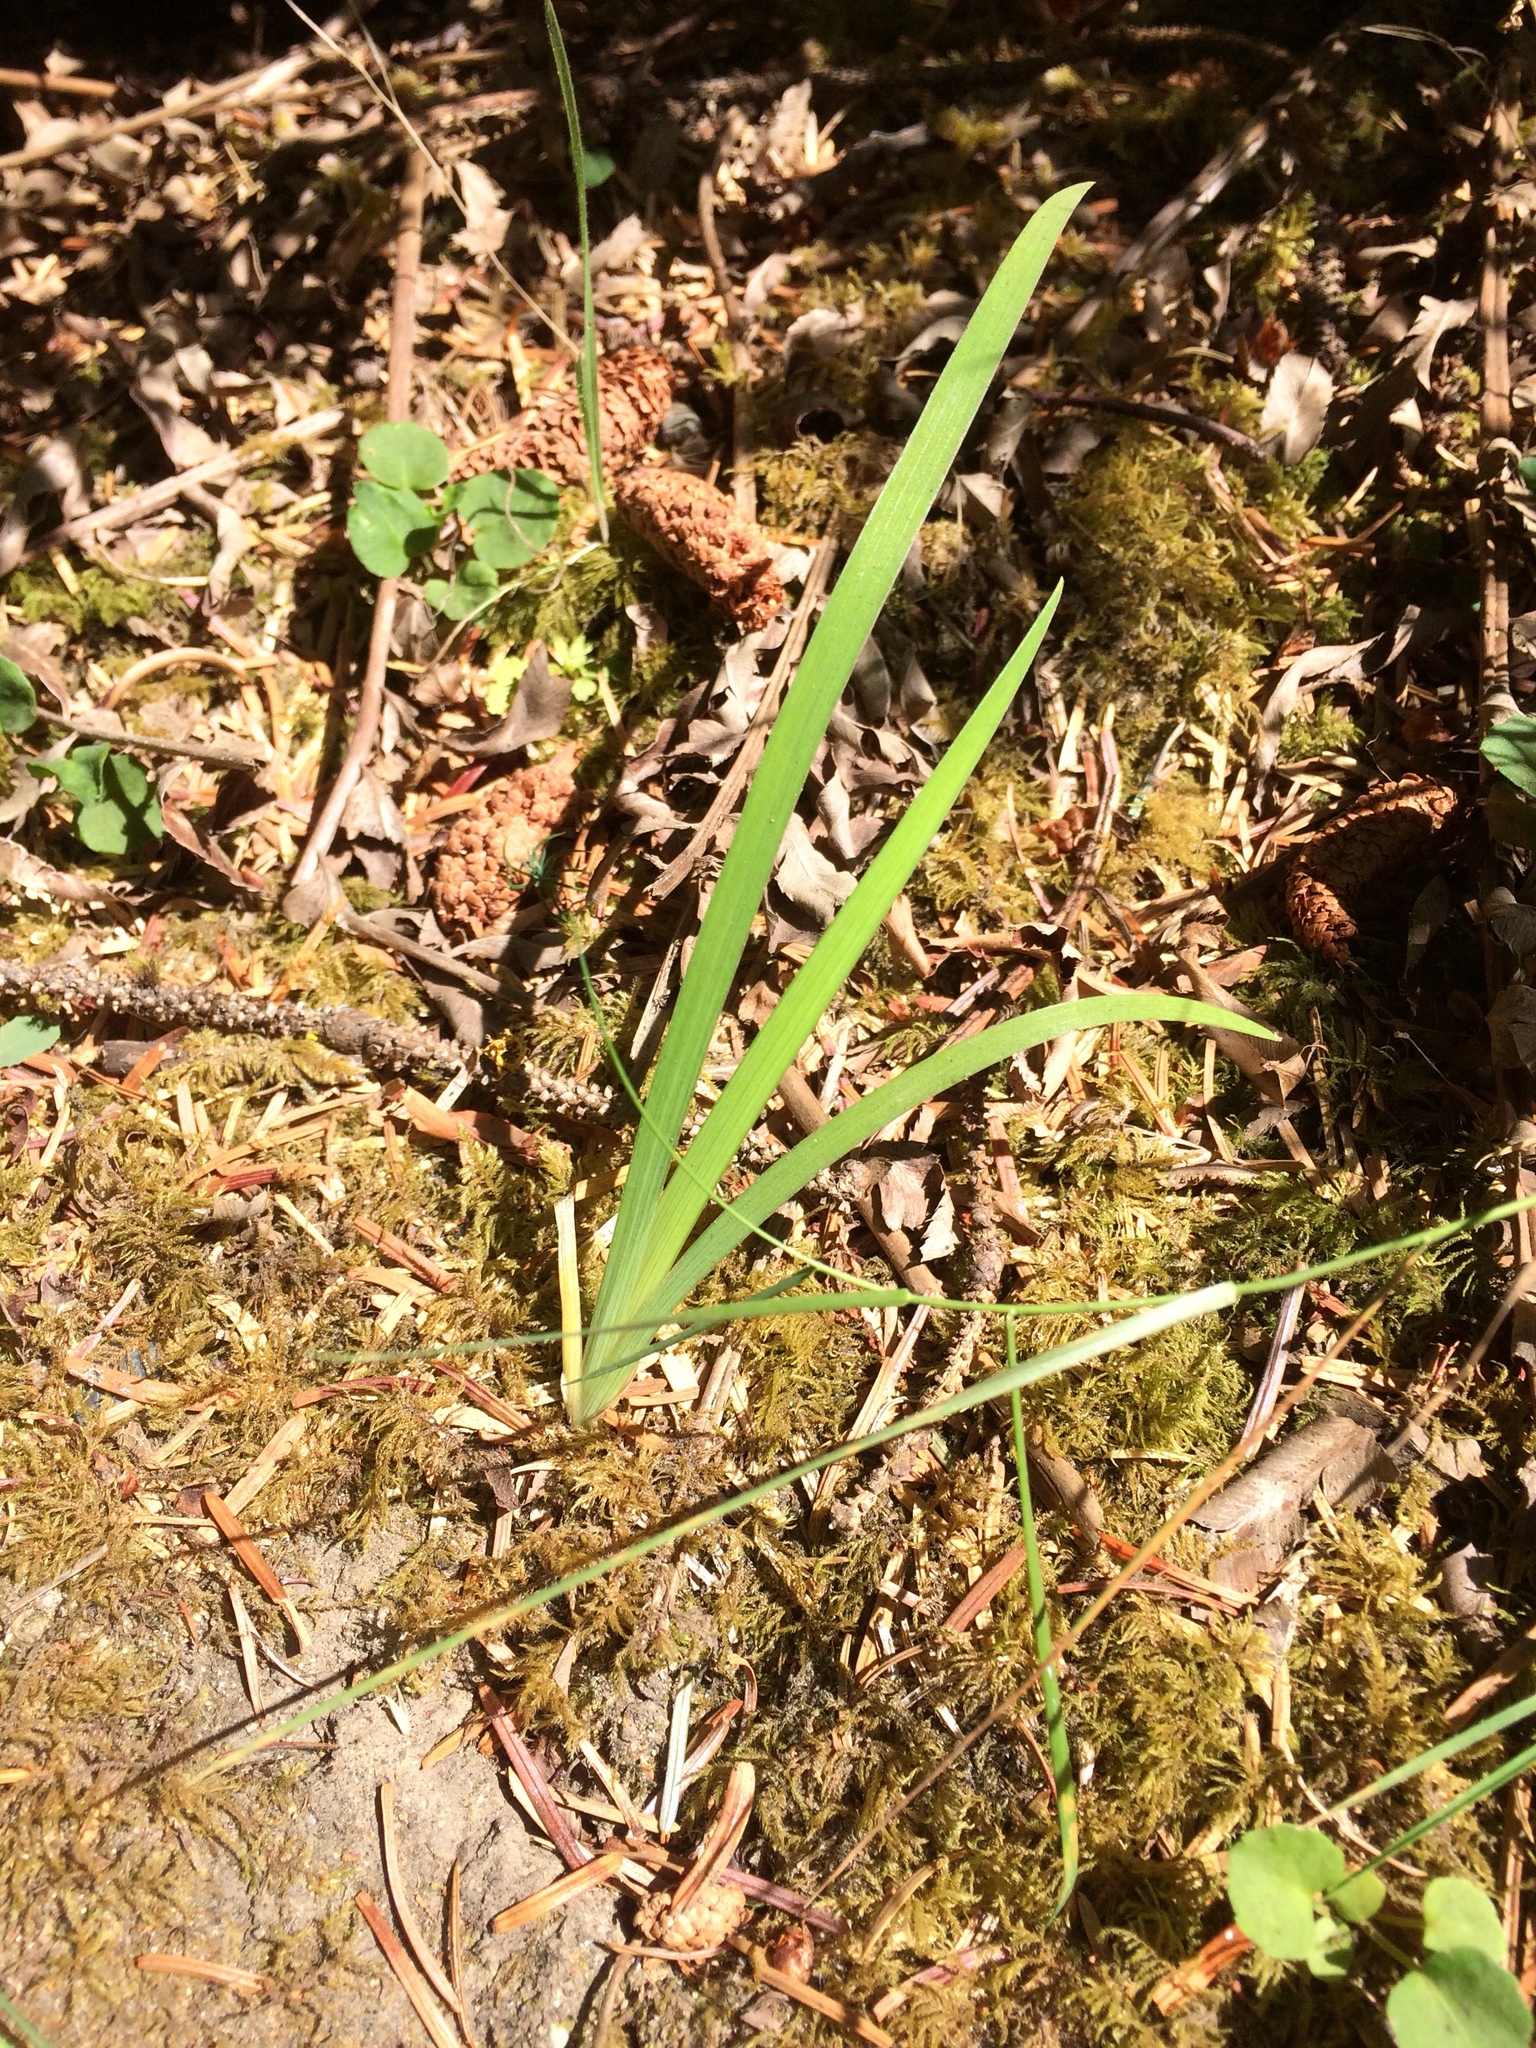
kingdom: Plantae
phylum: Tracheophyta
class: Liliopsida
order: Asparagales
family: Iridaceae
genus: Iris
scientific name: Iris douglasiana
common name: Marin iris
